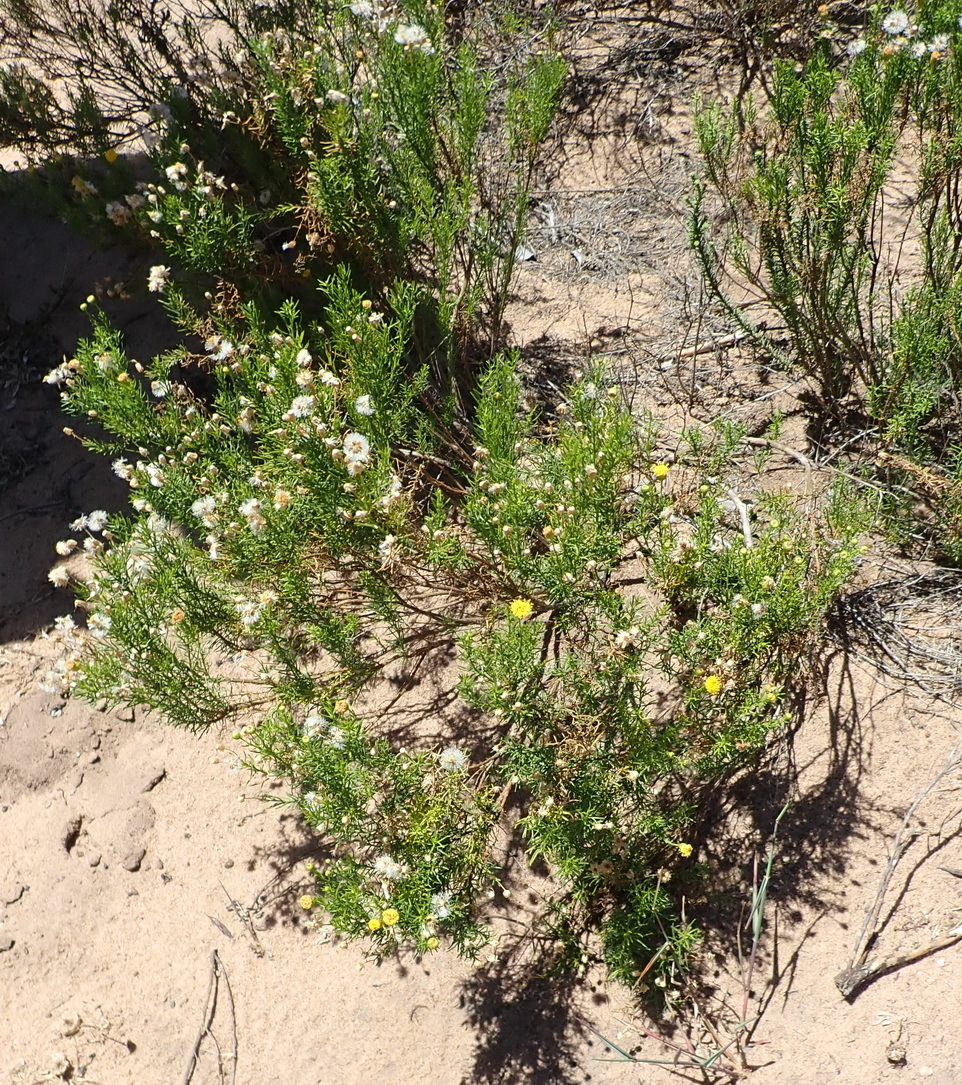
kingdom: Plantae
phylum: Tracheophyta
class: Magnoliopsida
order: Asterales
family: Asteraceae
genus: Chrysocoma
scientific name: Chrysocoma ciliata
